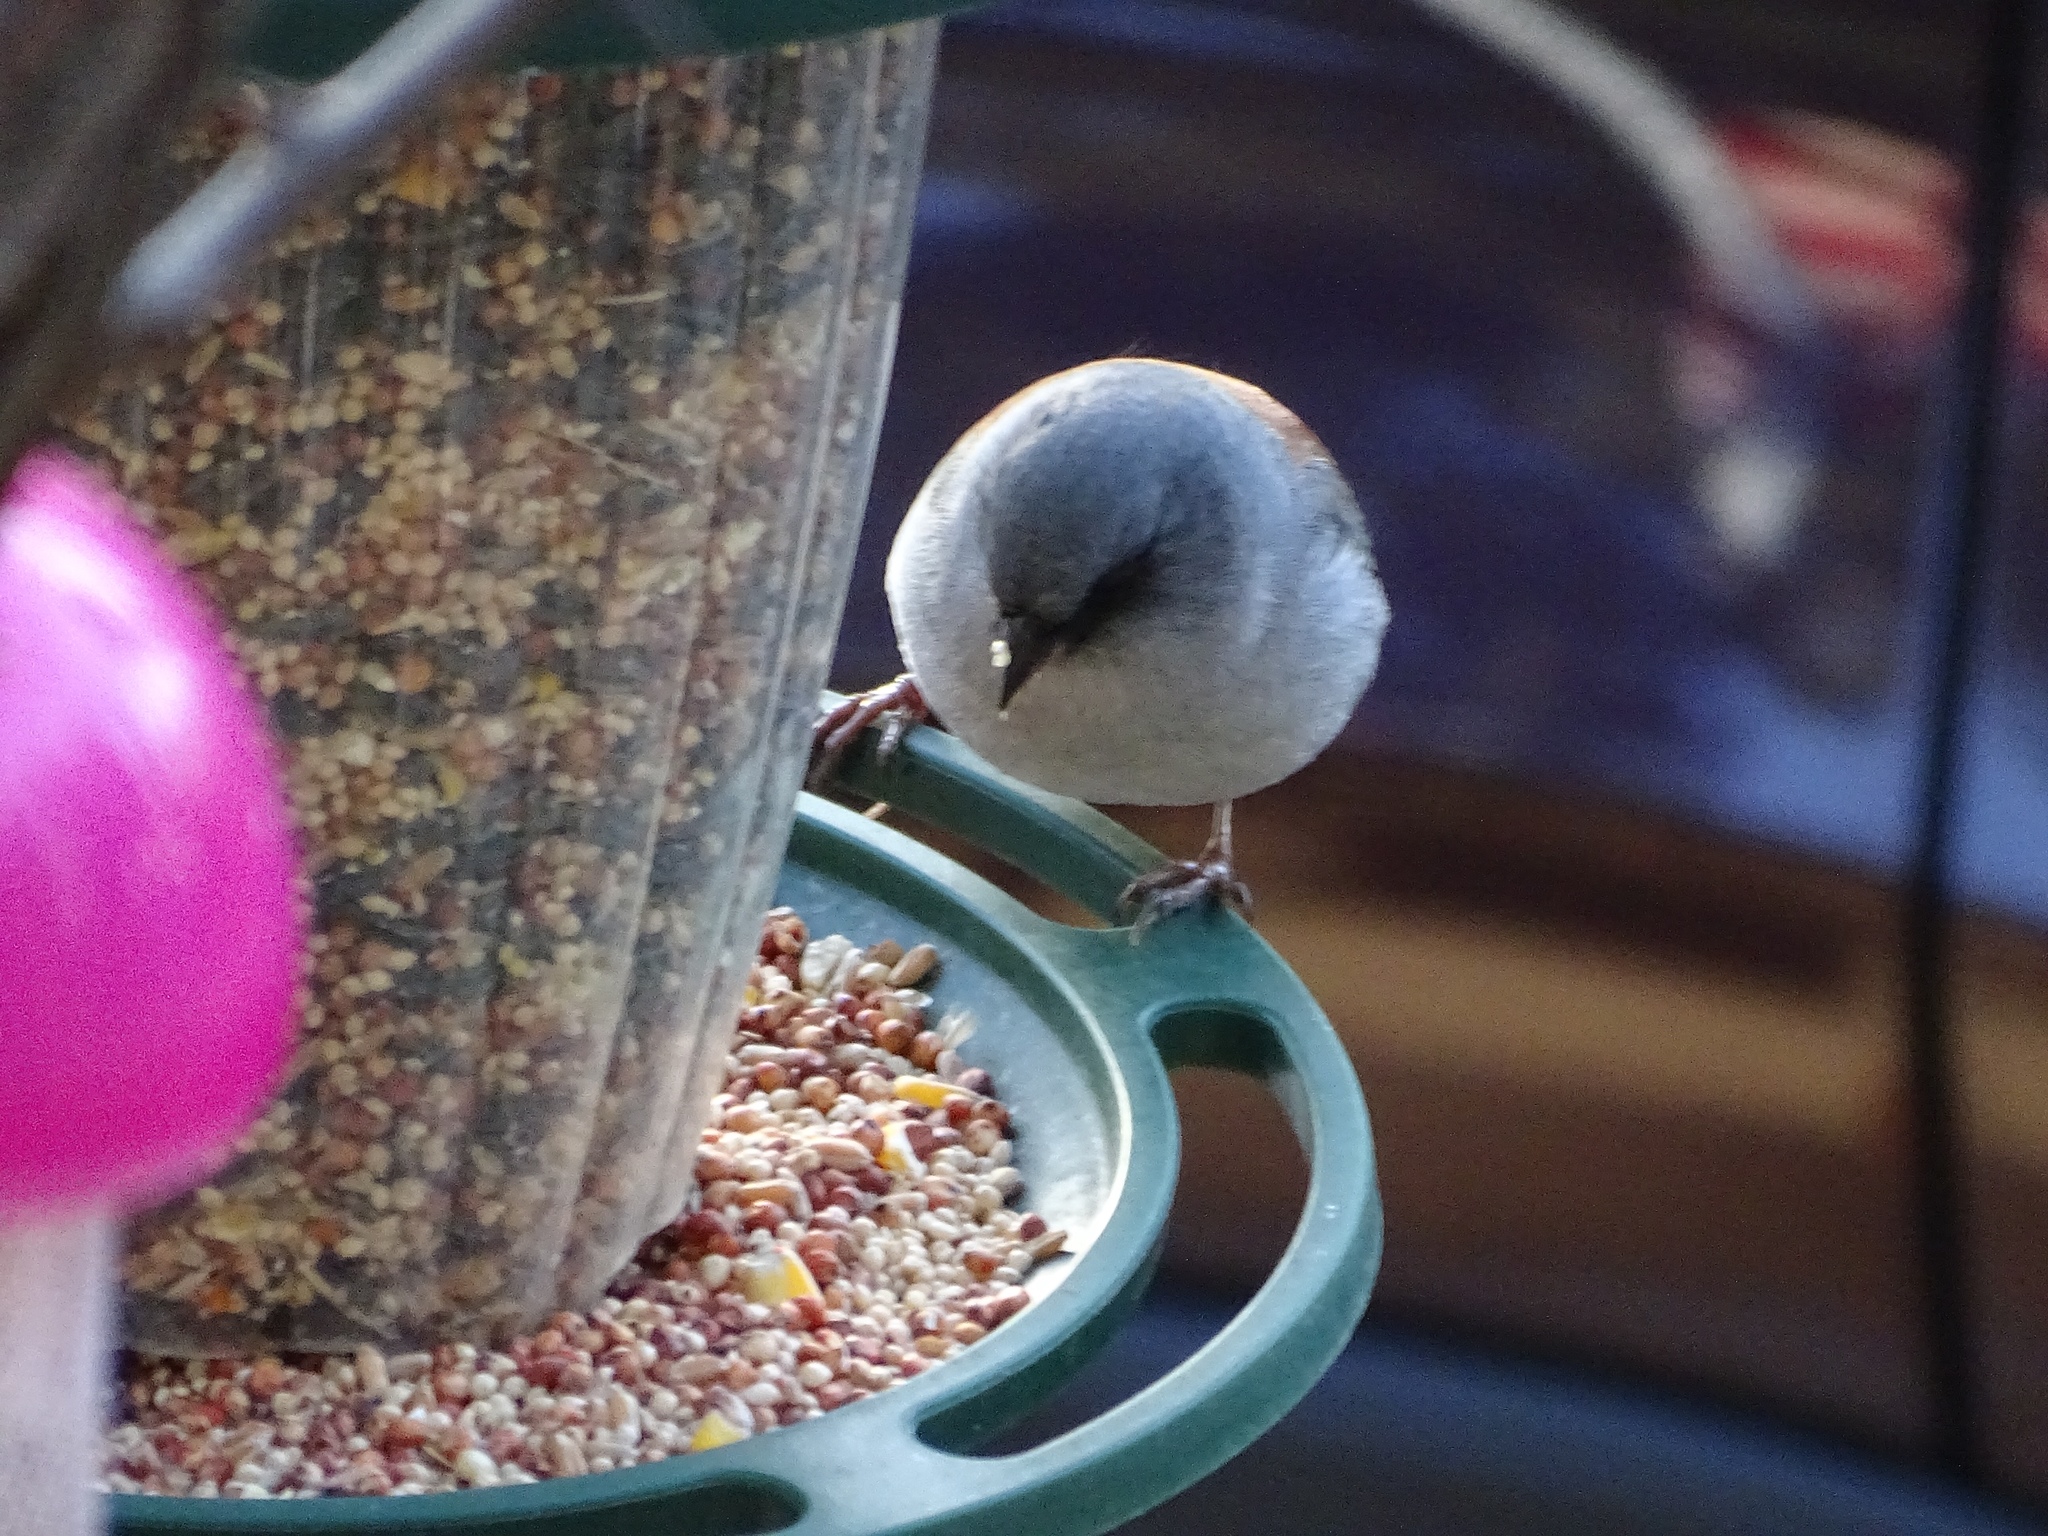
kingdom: Animalia
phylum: Chordata
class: Aves
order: Passeriformes
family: Passerellidae
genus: Junco
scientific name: Junco hyemalis
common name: Dark-eyed junco
